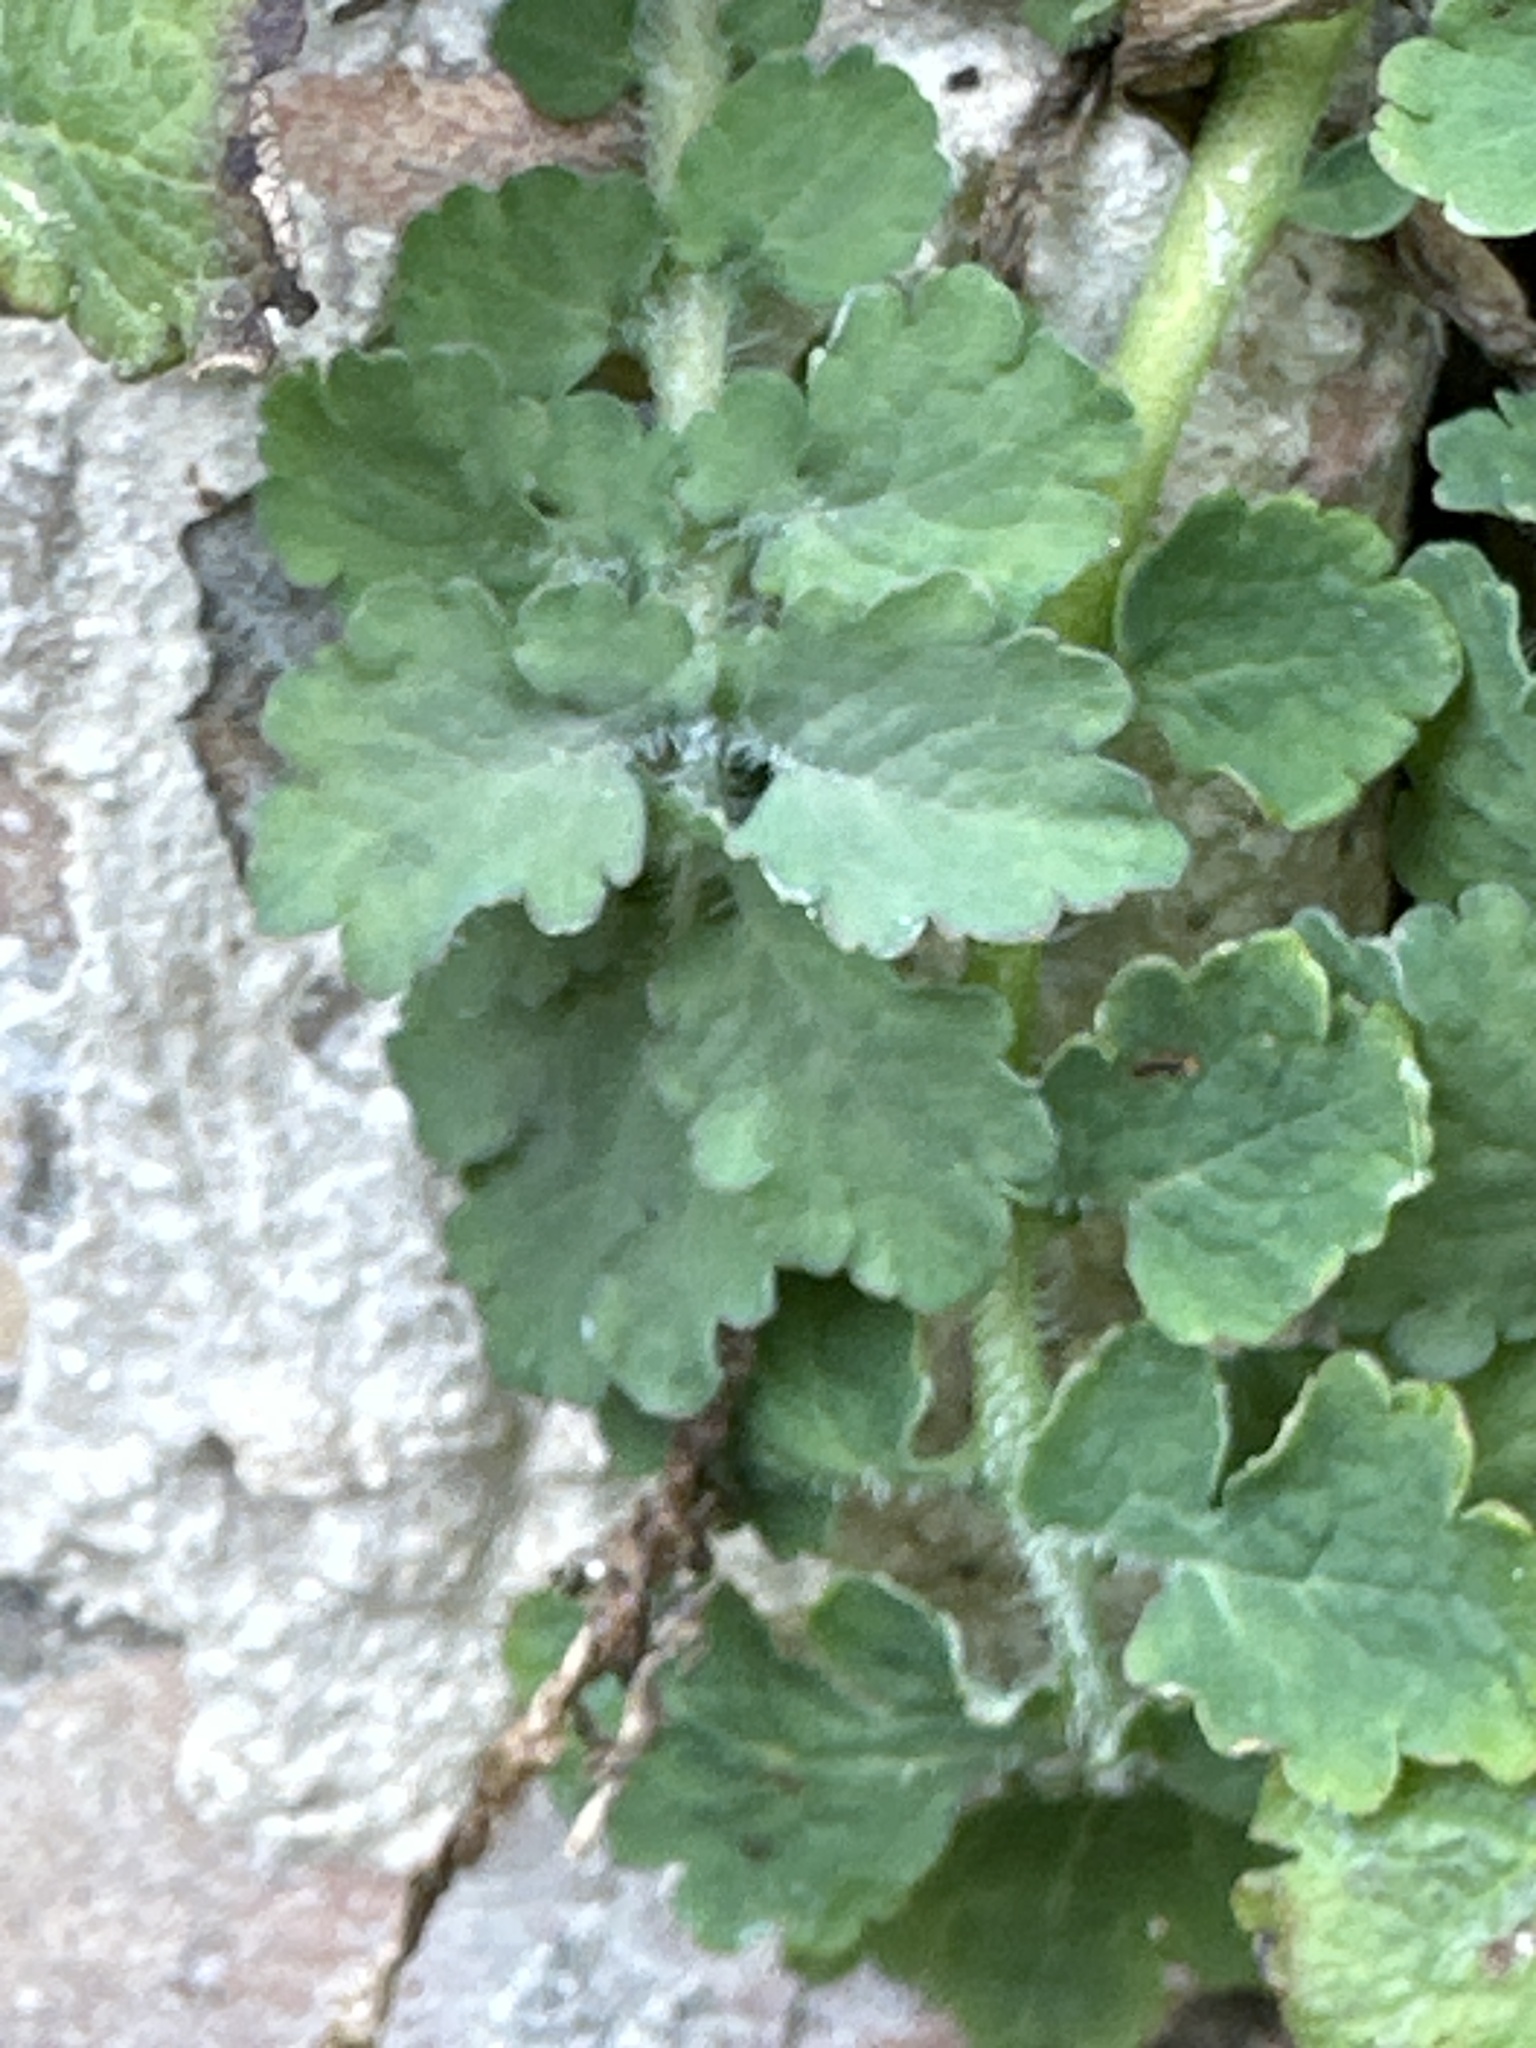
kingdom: Plantae
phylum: Tracheophyta
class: Magnoliopsida
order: Ranunculales
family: Papaveraceae
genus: Chelidonium
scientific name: Chelidonium majus
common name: Greater celandine
